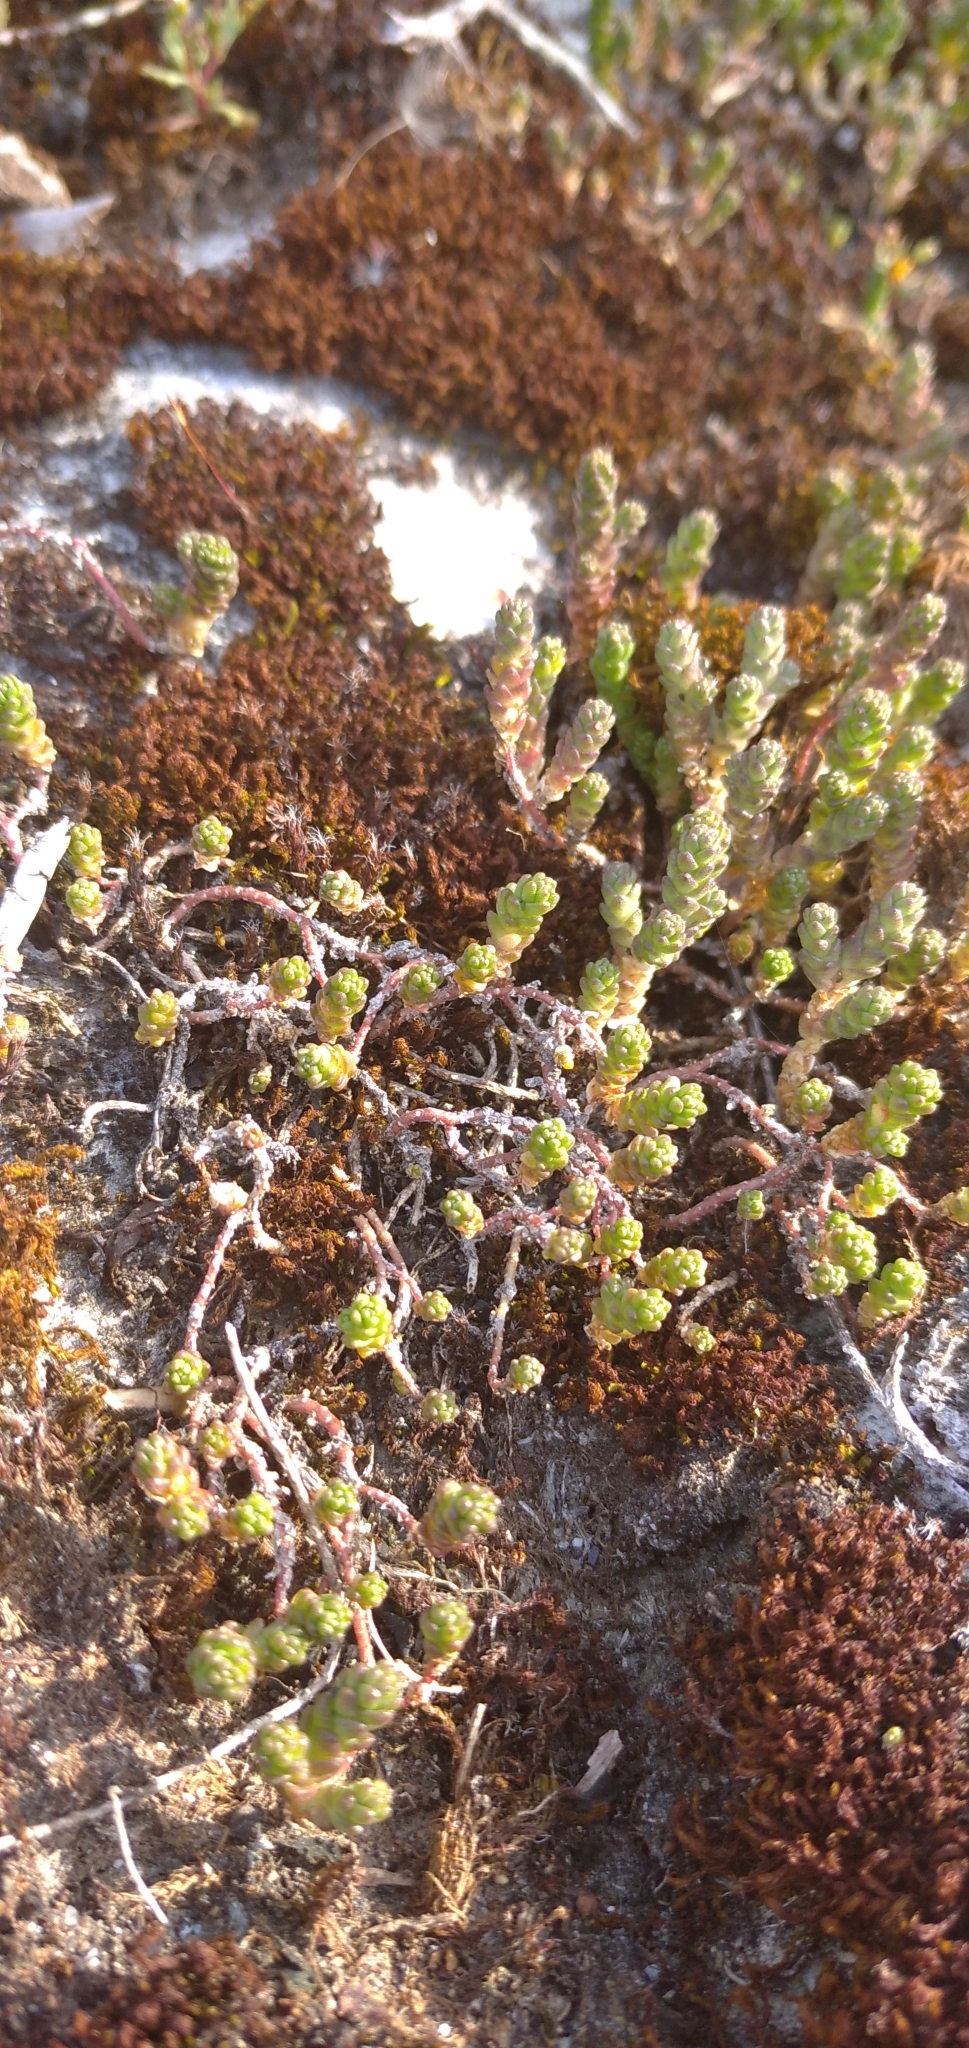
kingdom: Plantae
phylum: Tracheophyta
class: Magnoliopsida
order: Saxifragales
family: Crassulaceae
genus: Sedum
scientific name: Sedum acre
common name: Biting stonecrop
